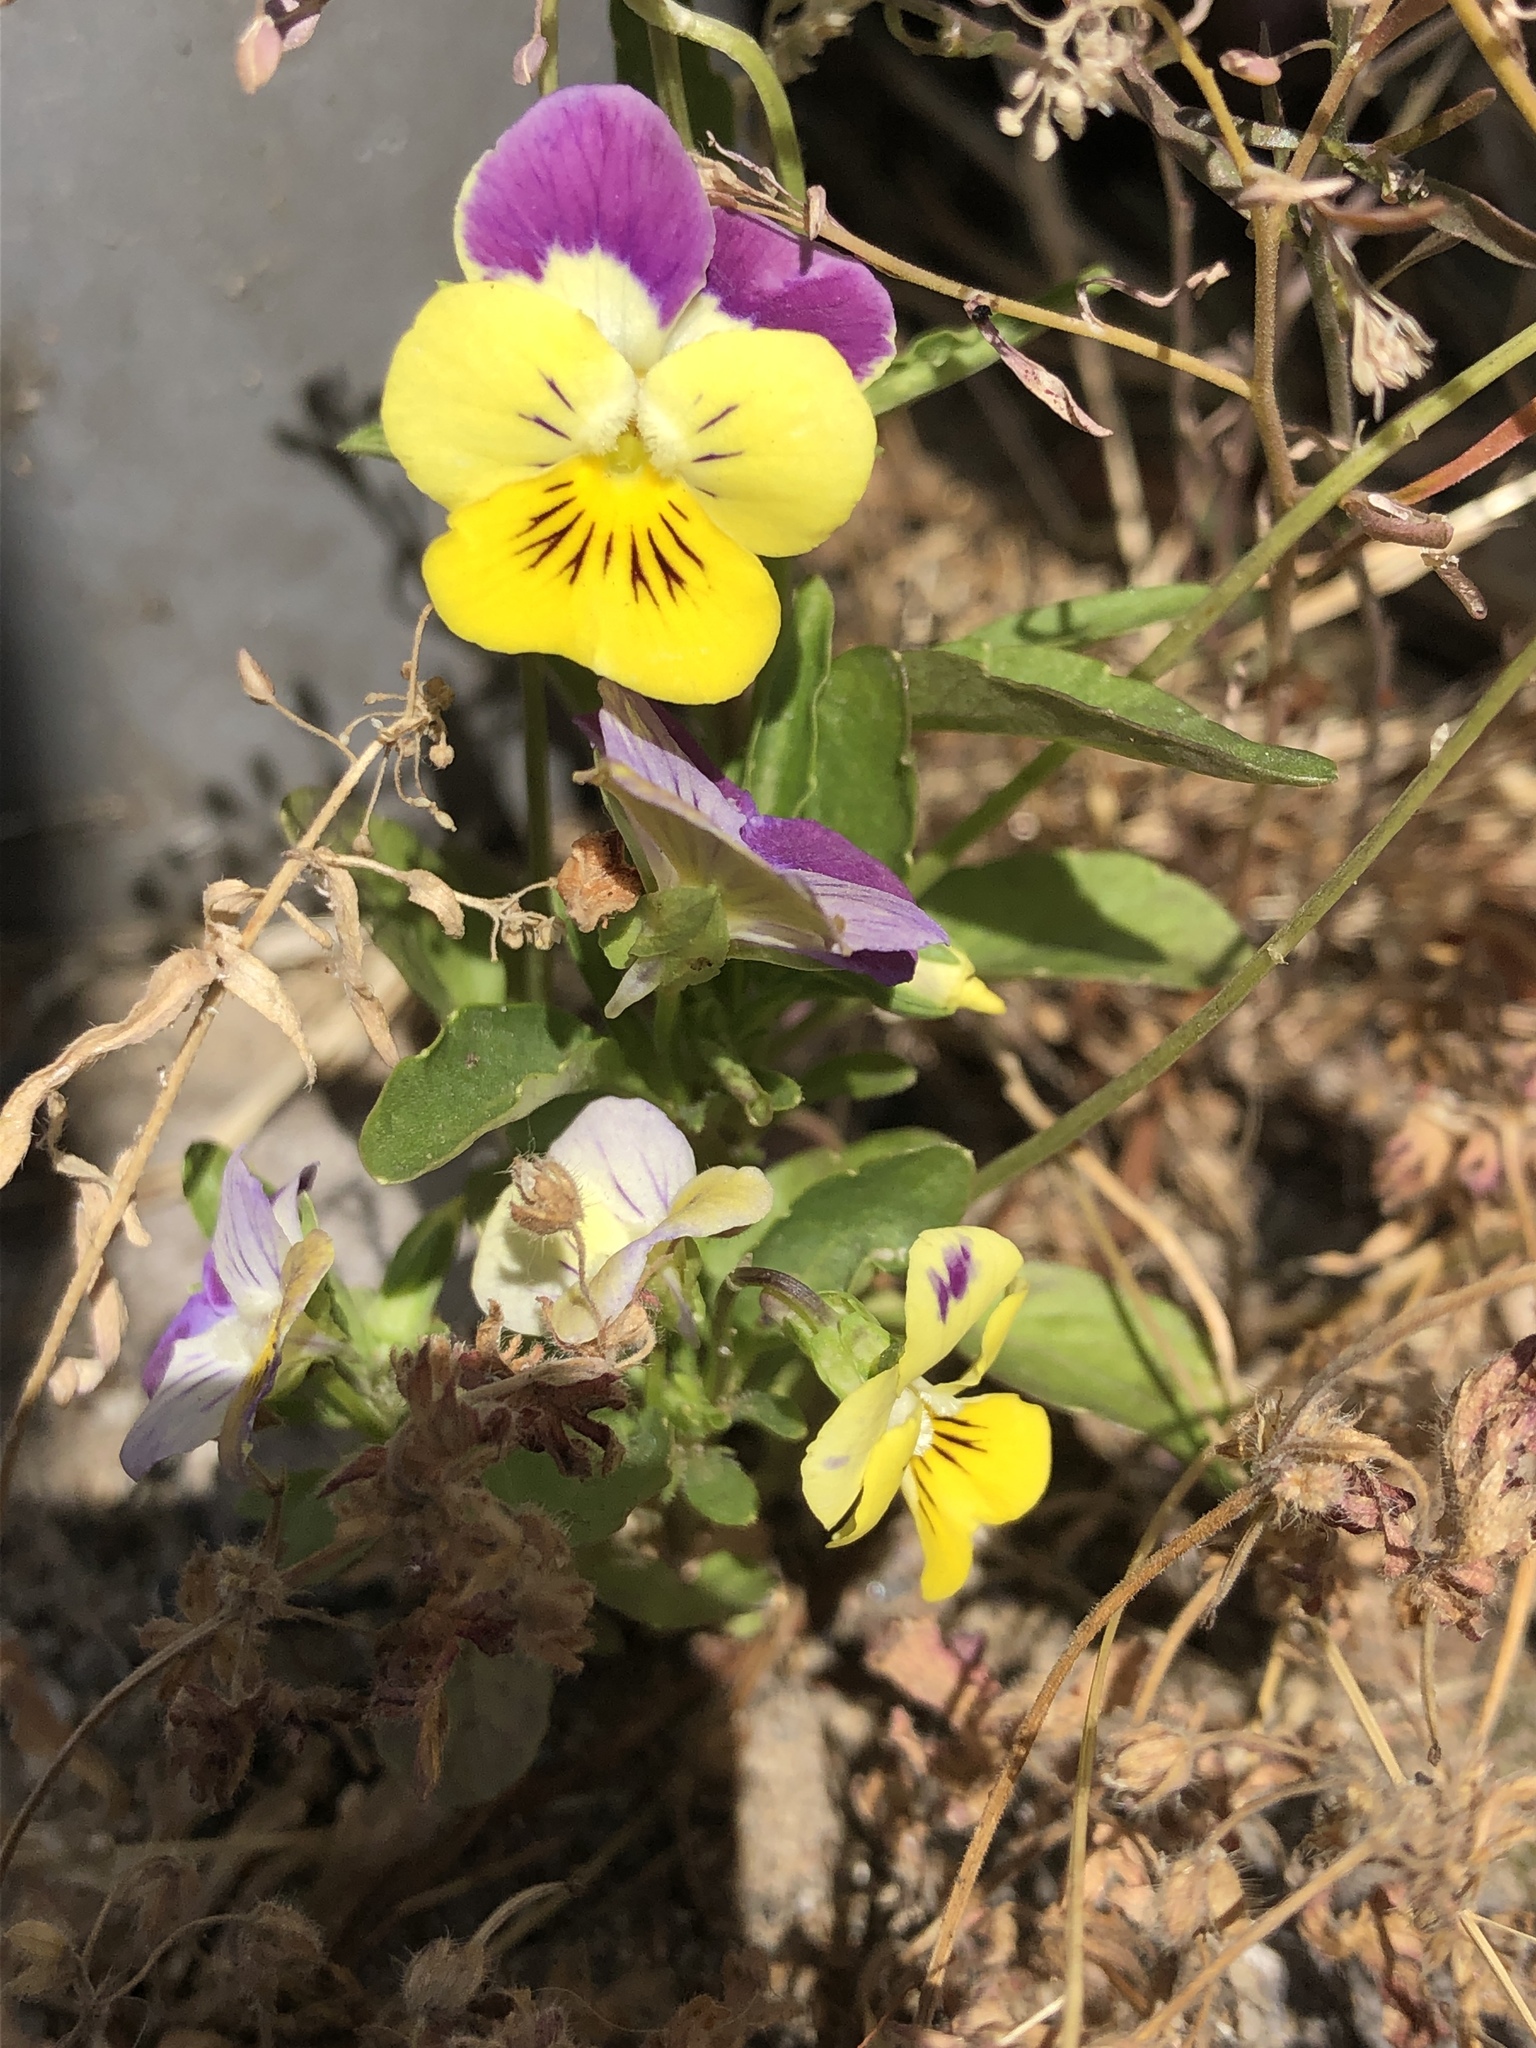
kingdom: Plantae
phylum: Tracheophyta
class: Magnoliopsida
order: Malpighiales
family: Violaceae
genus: Viola
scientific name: Viola williamsii
